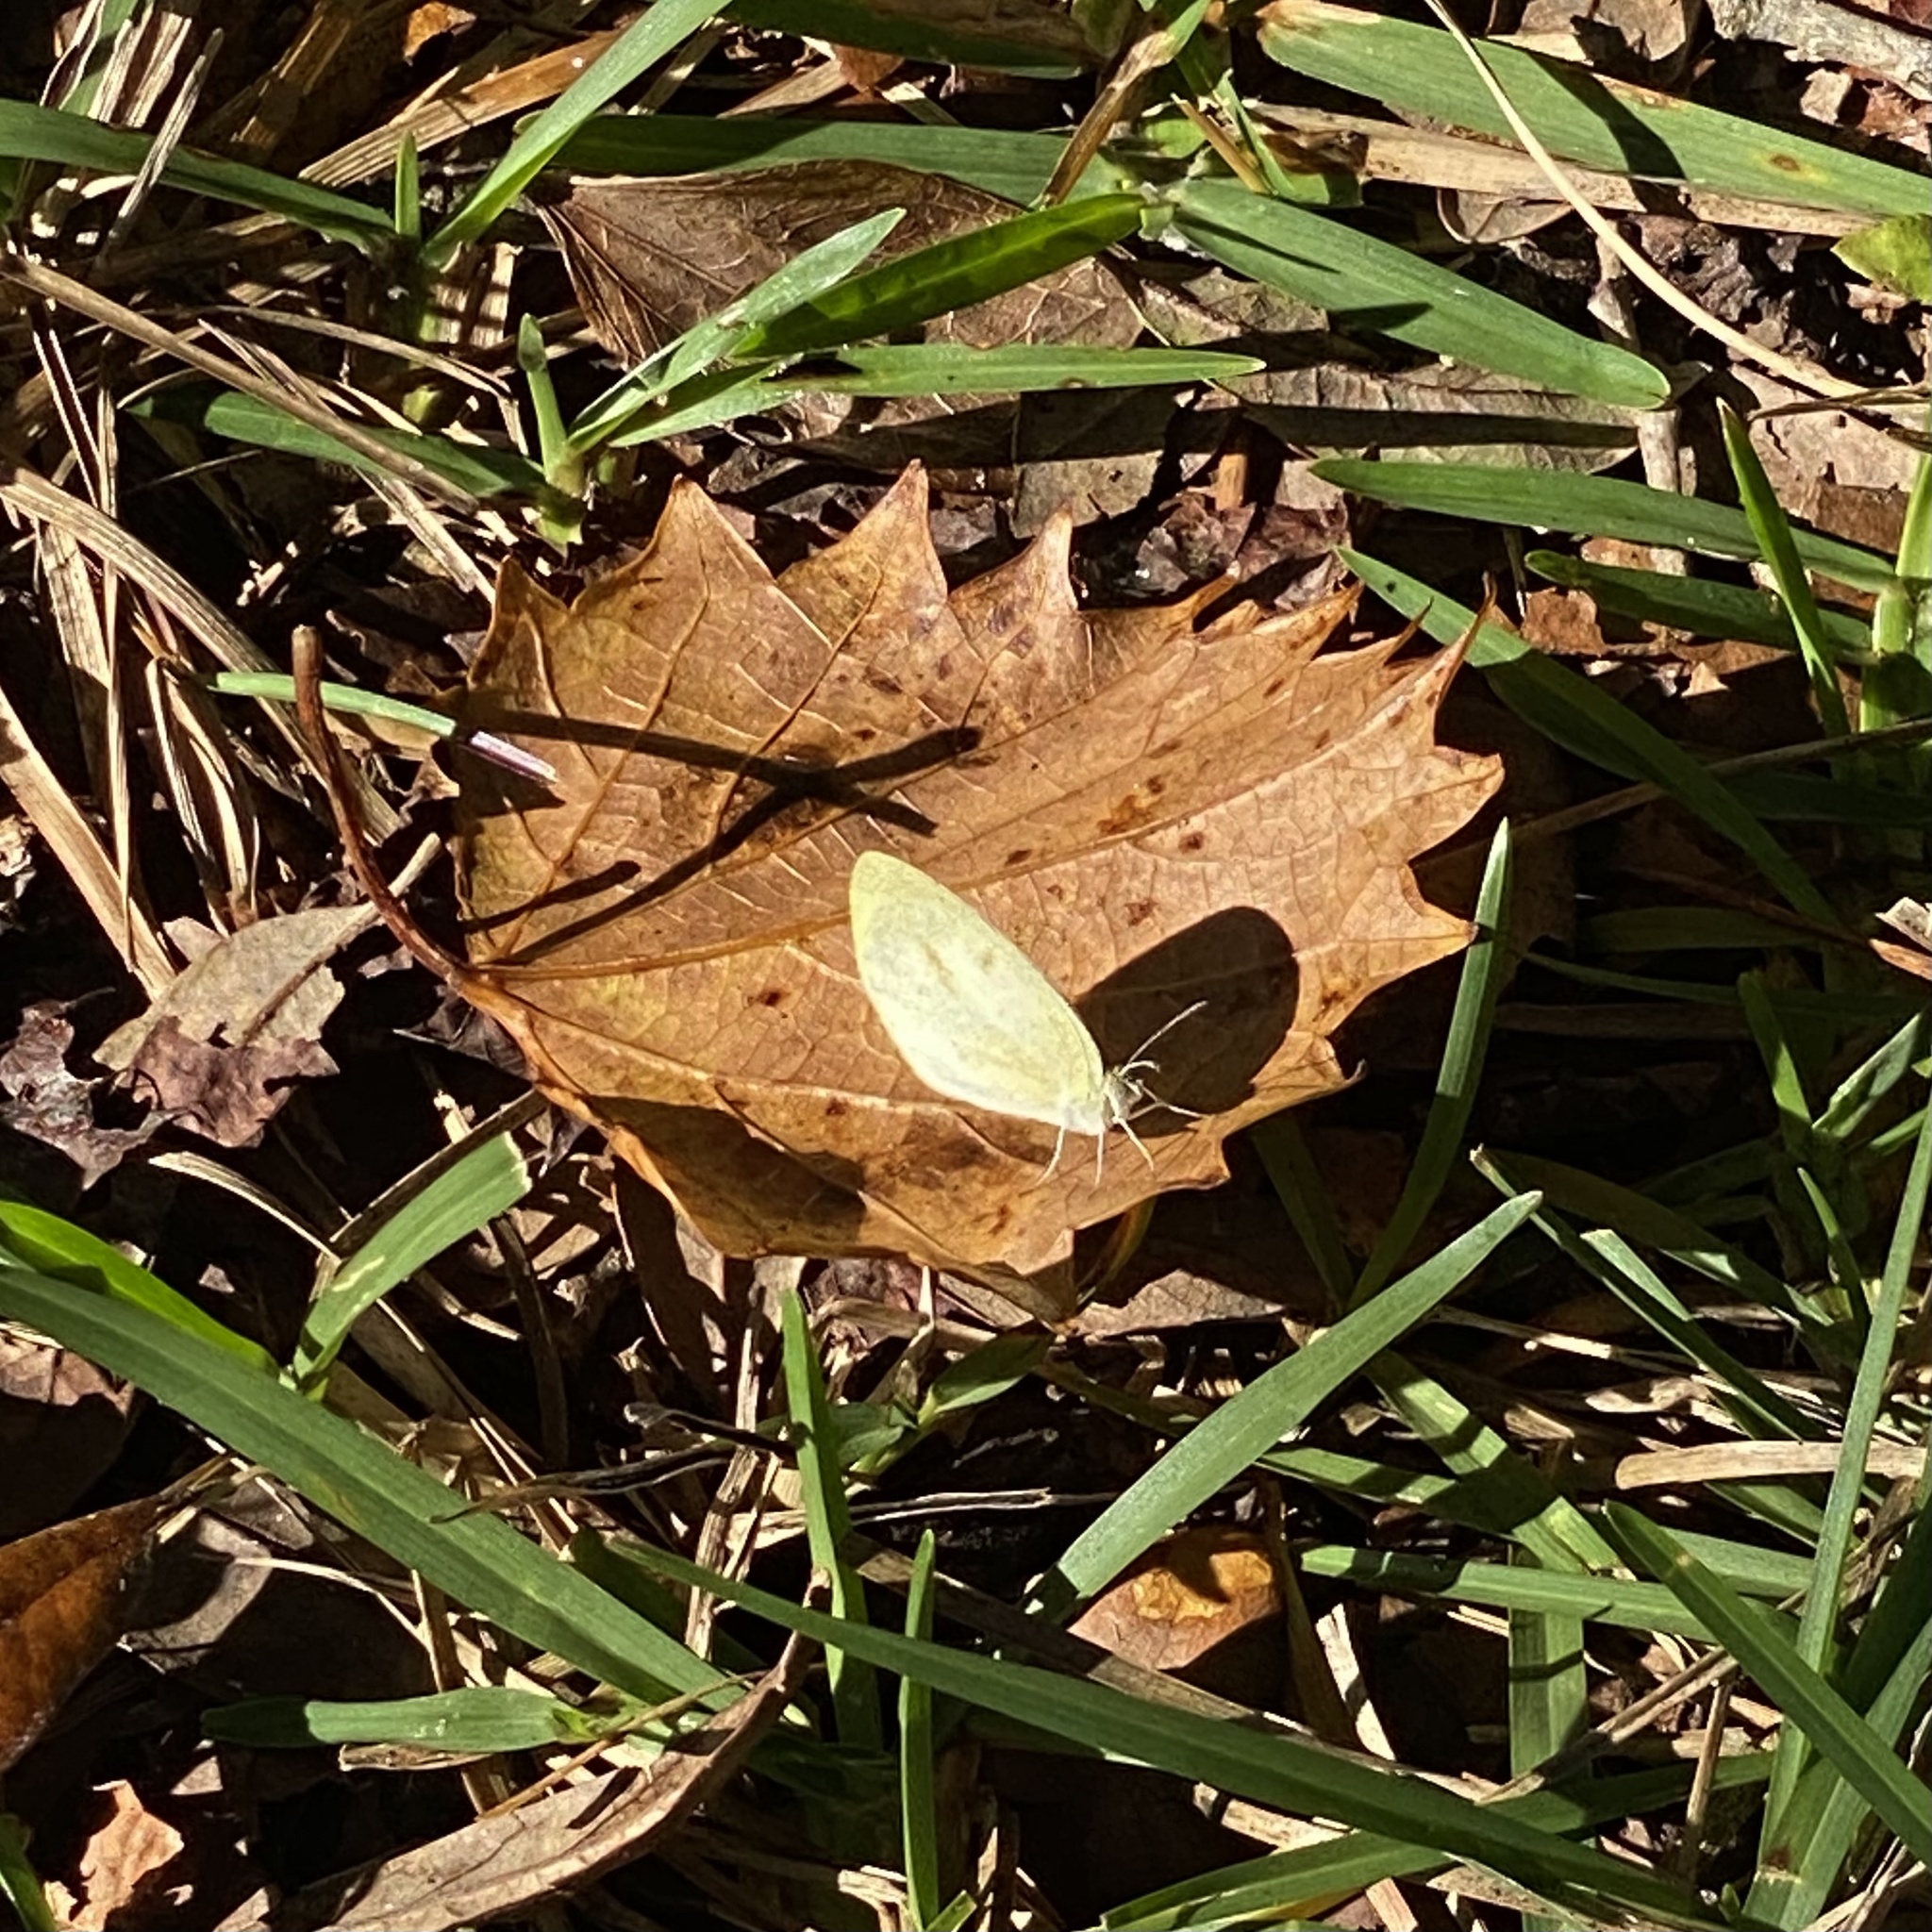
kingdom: Animalia
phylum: Arthropoda
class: Insecta
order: Lepidoptera
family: Pieridae
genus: Eurema
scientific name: Eurema daira
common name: Barred sulphur
